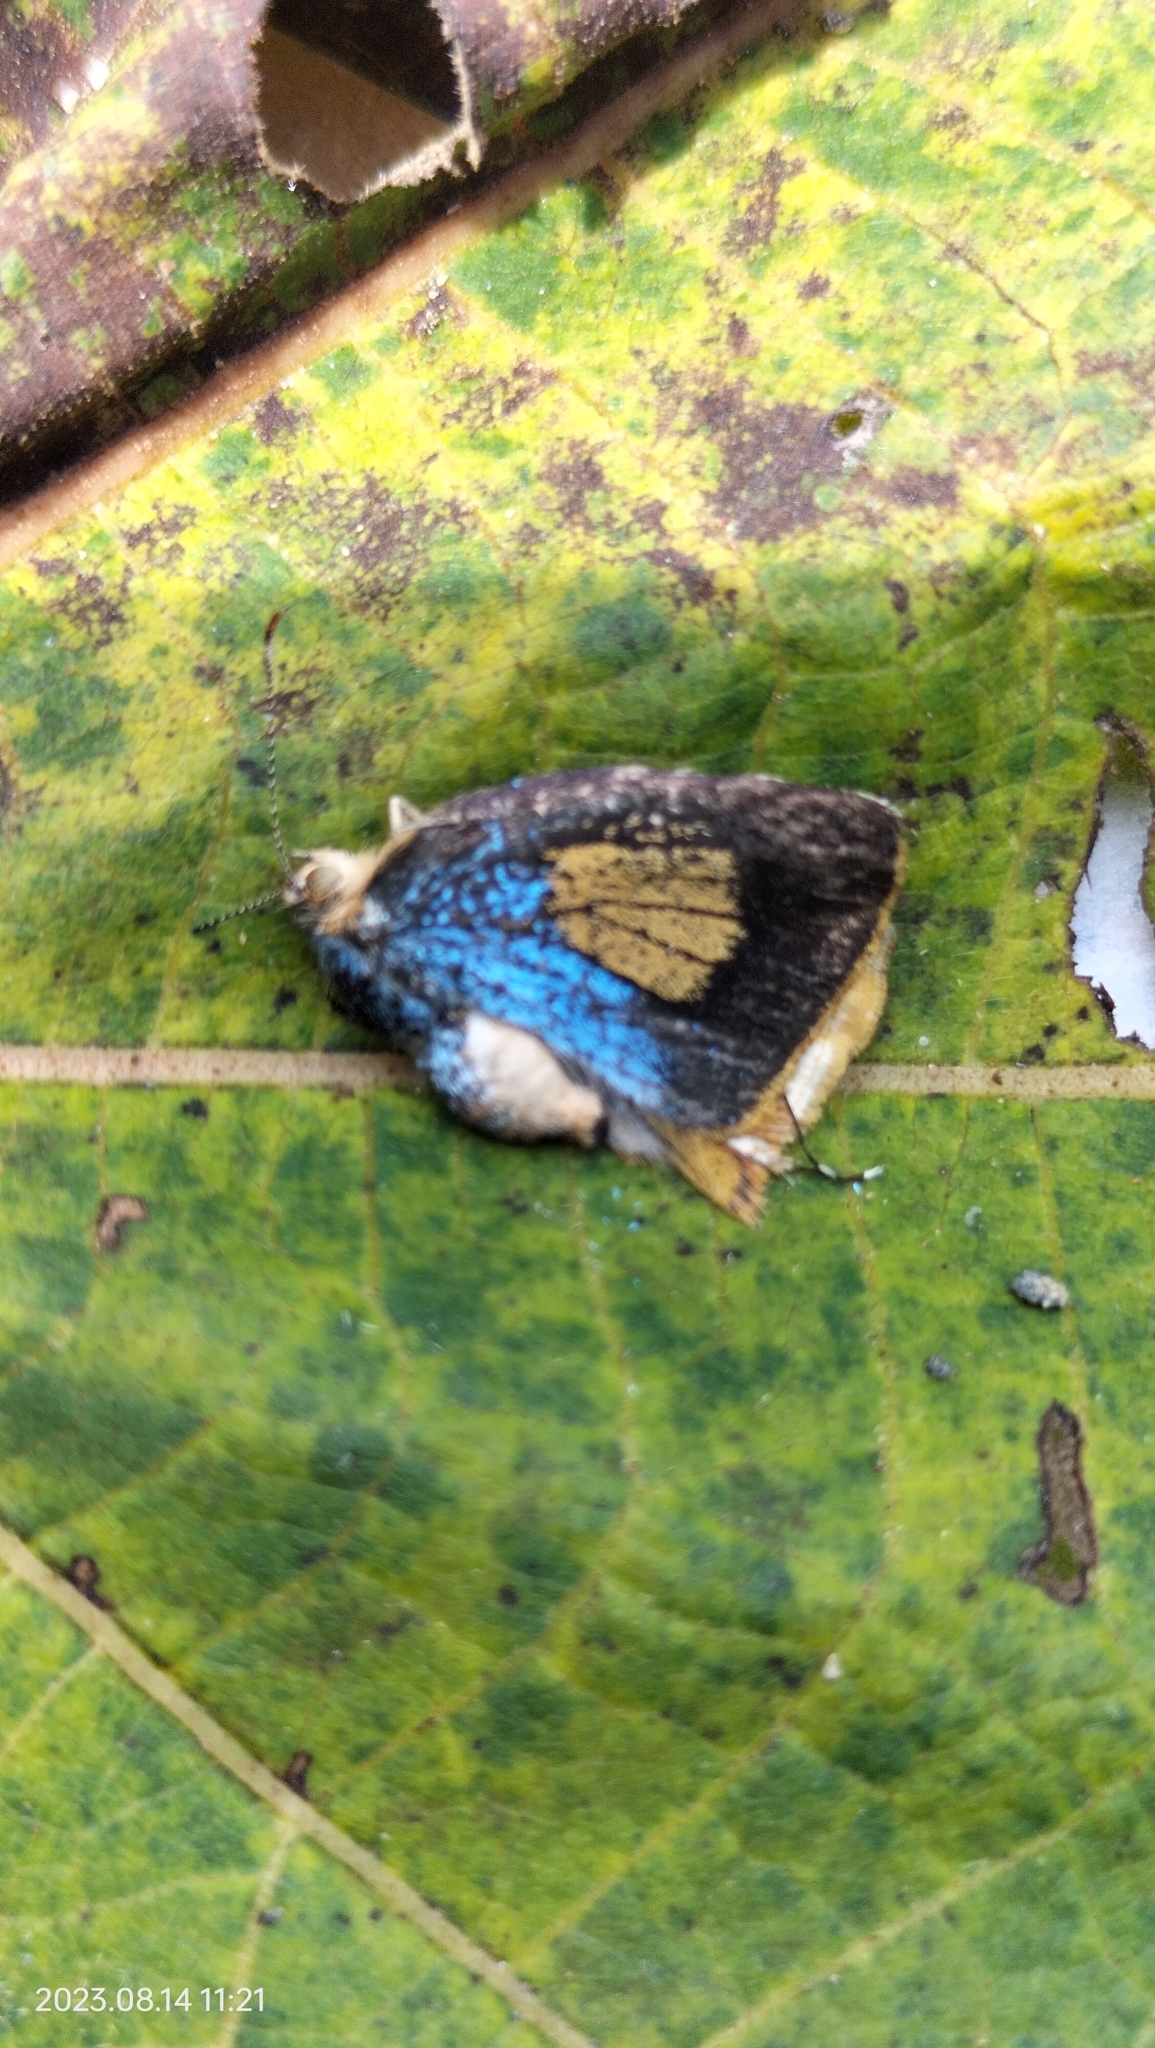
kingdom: Animalia
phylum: Arthropoda
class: Insecta
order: Lepidoptera
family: Lycaenidae
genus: Thecla
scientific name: Thecla dolylas
